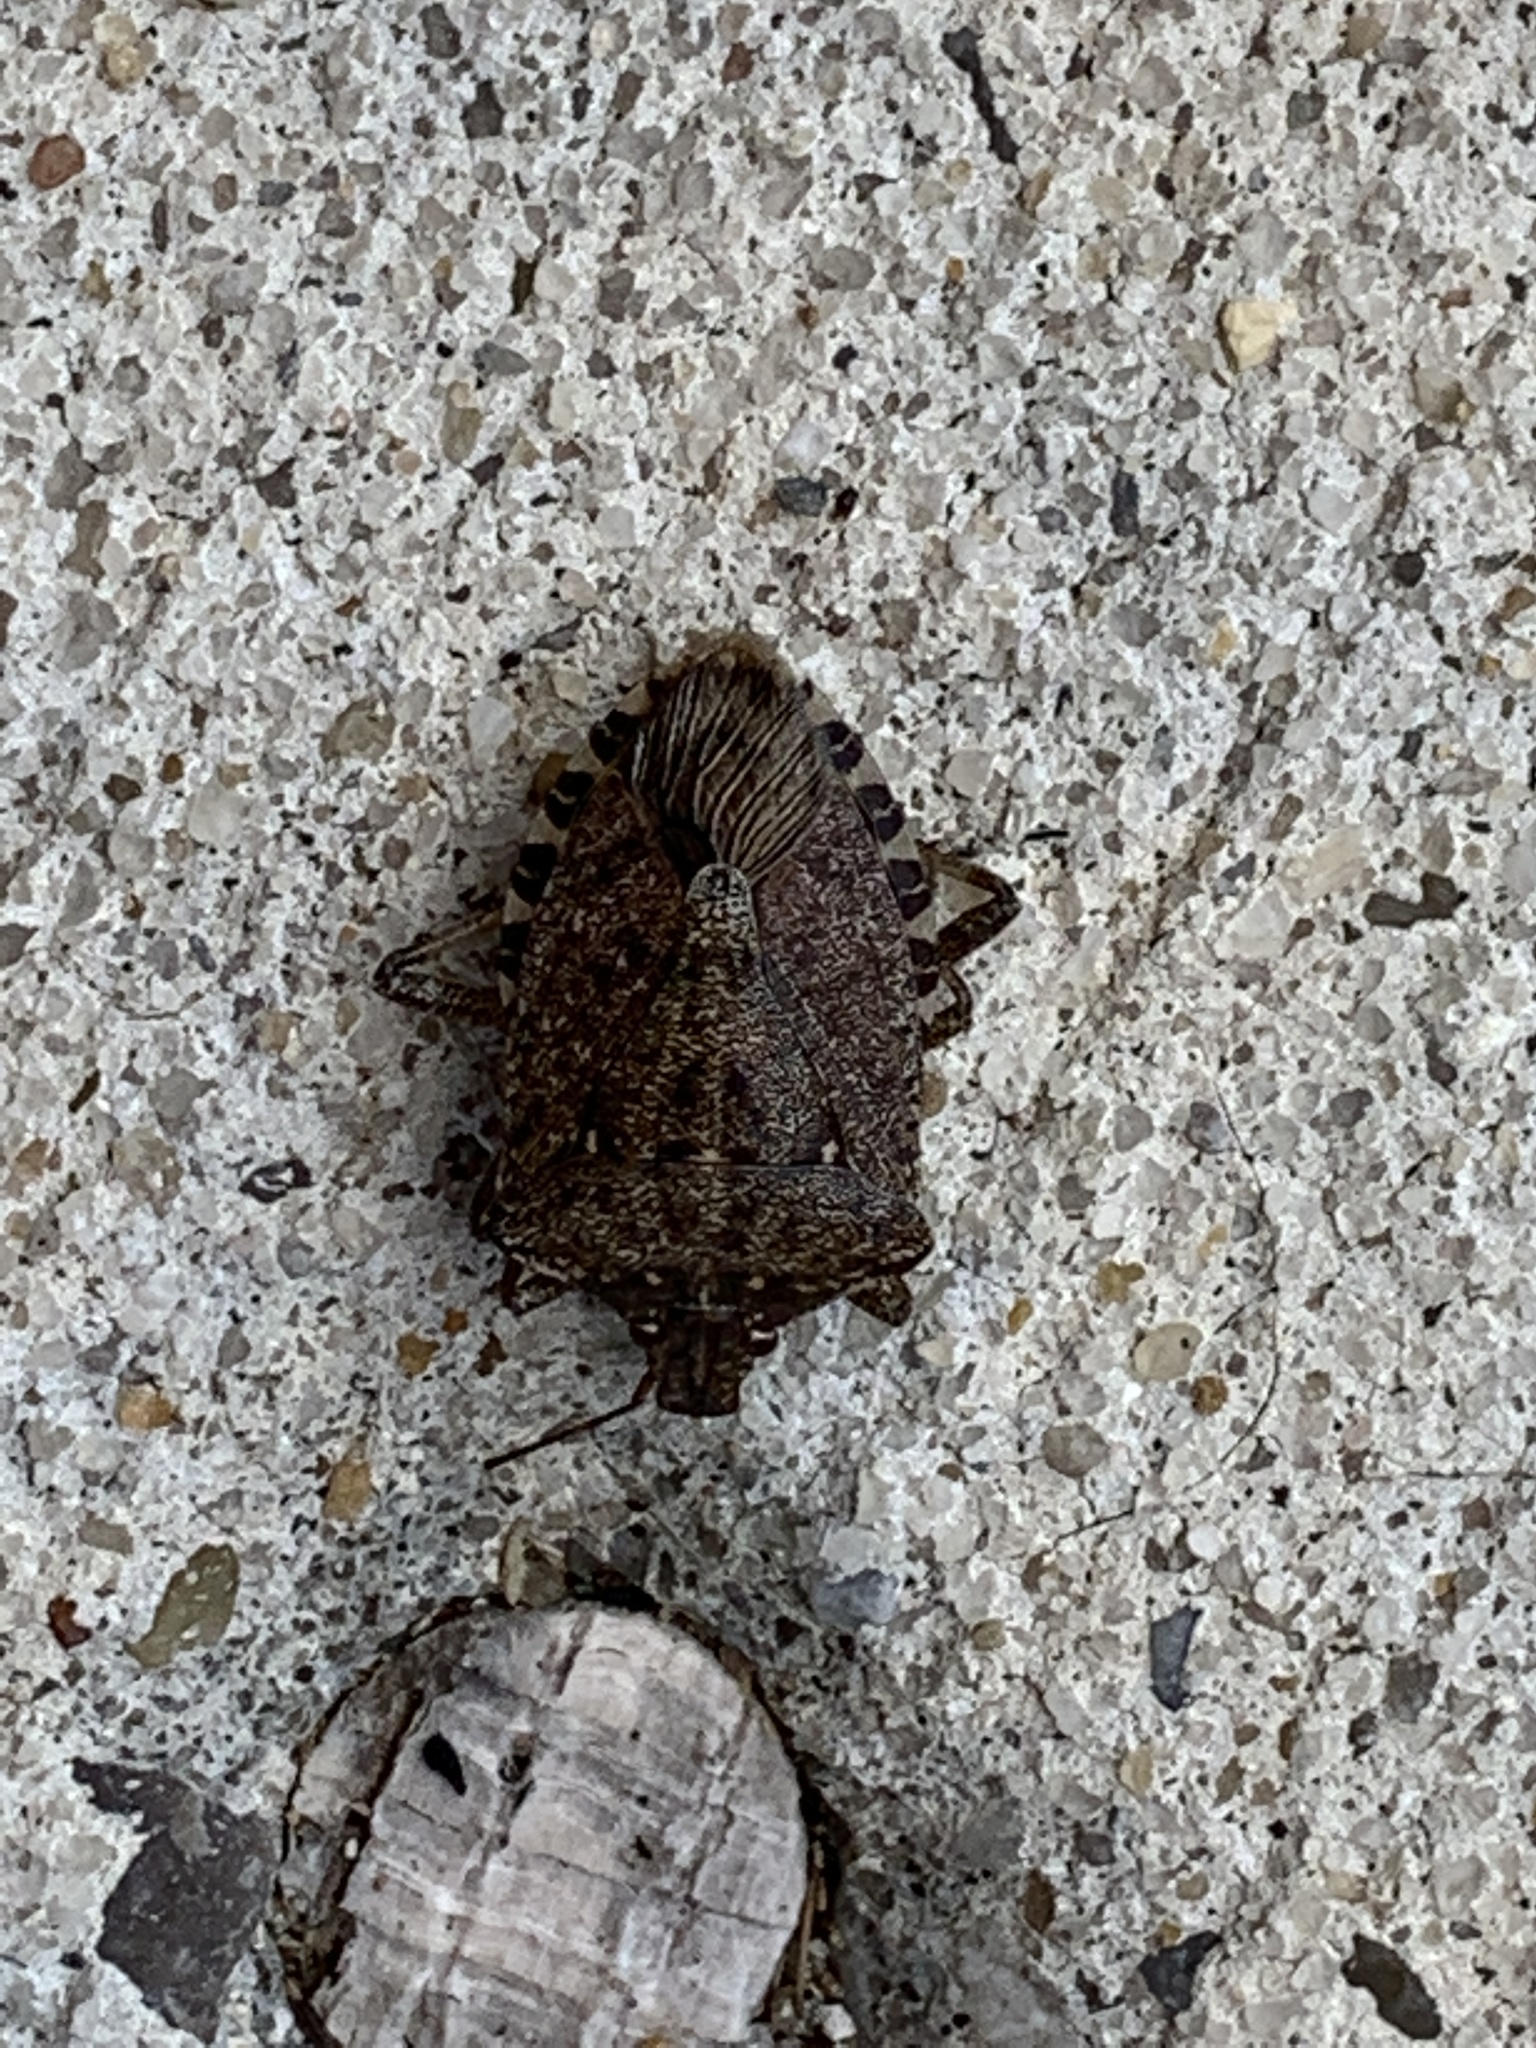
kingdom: Animalia
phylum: Arthropoda
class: Insecta
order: Hemiptera
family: Pentatomidae
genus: Halyomorpha
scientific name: Halyomorpha halys
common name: Brown marmorated stink bug
